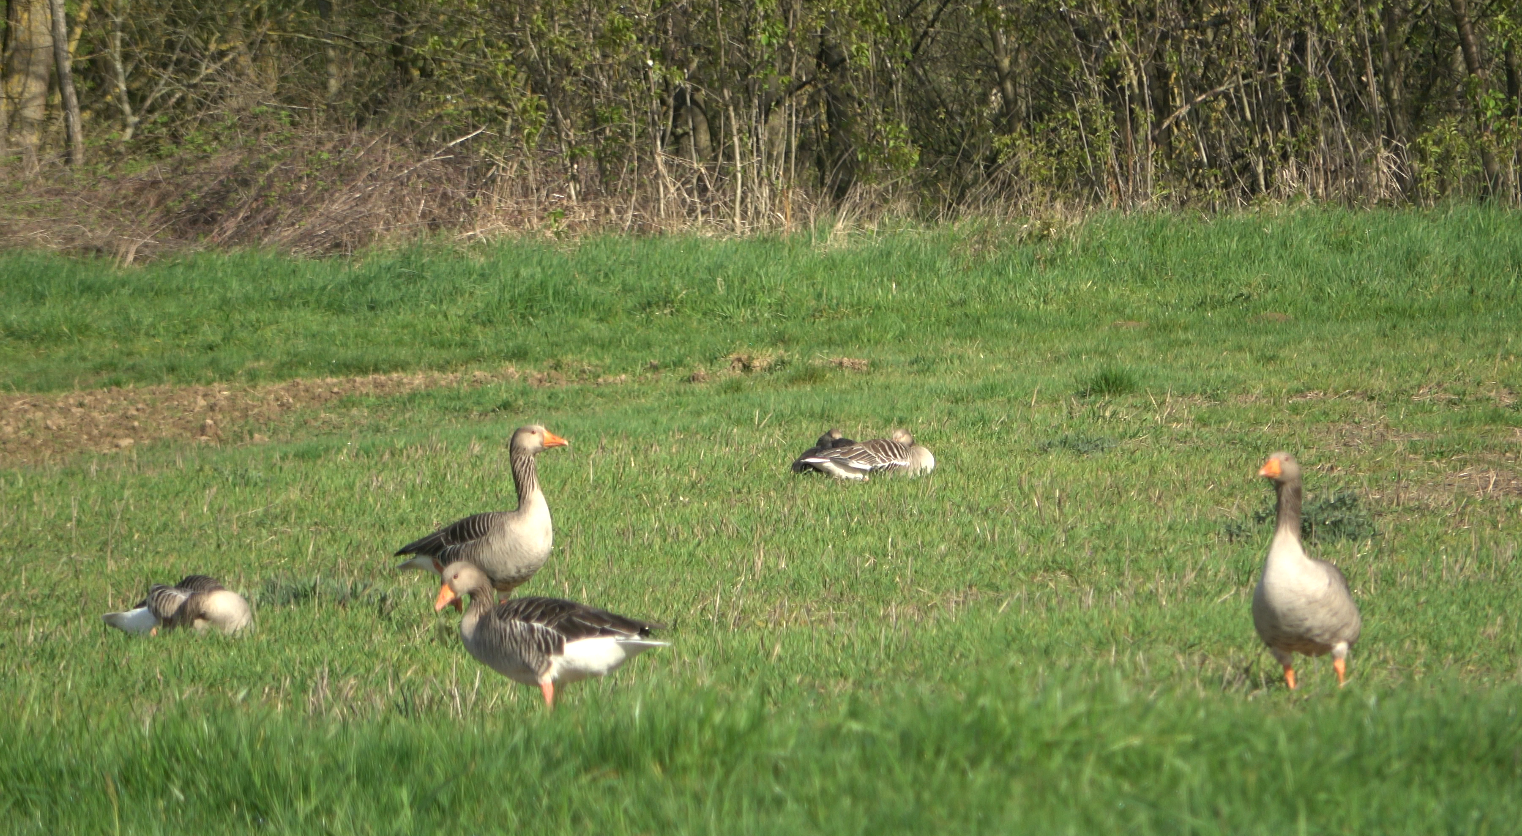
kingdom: Animalia
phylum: Chordata
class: Aves
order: Anseriformes
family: Anatidae
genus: Anser
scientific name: Anser anser
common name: Greylag goose
